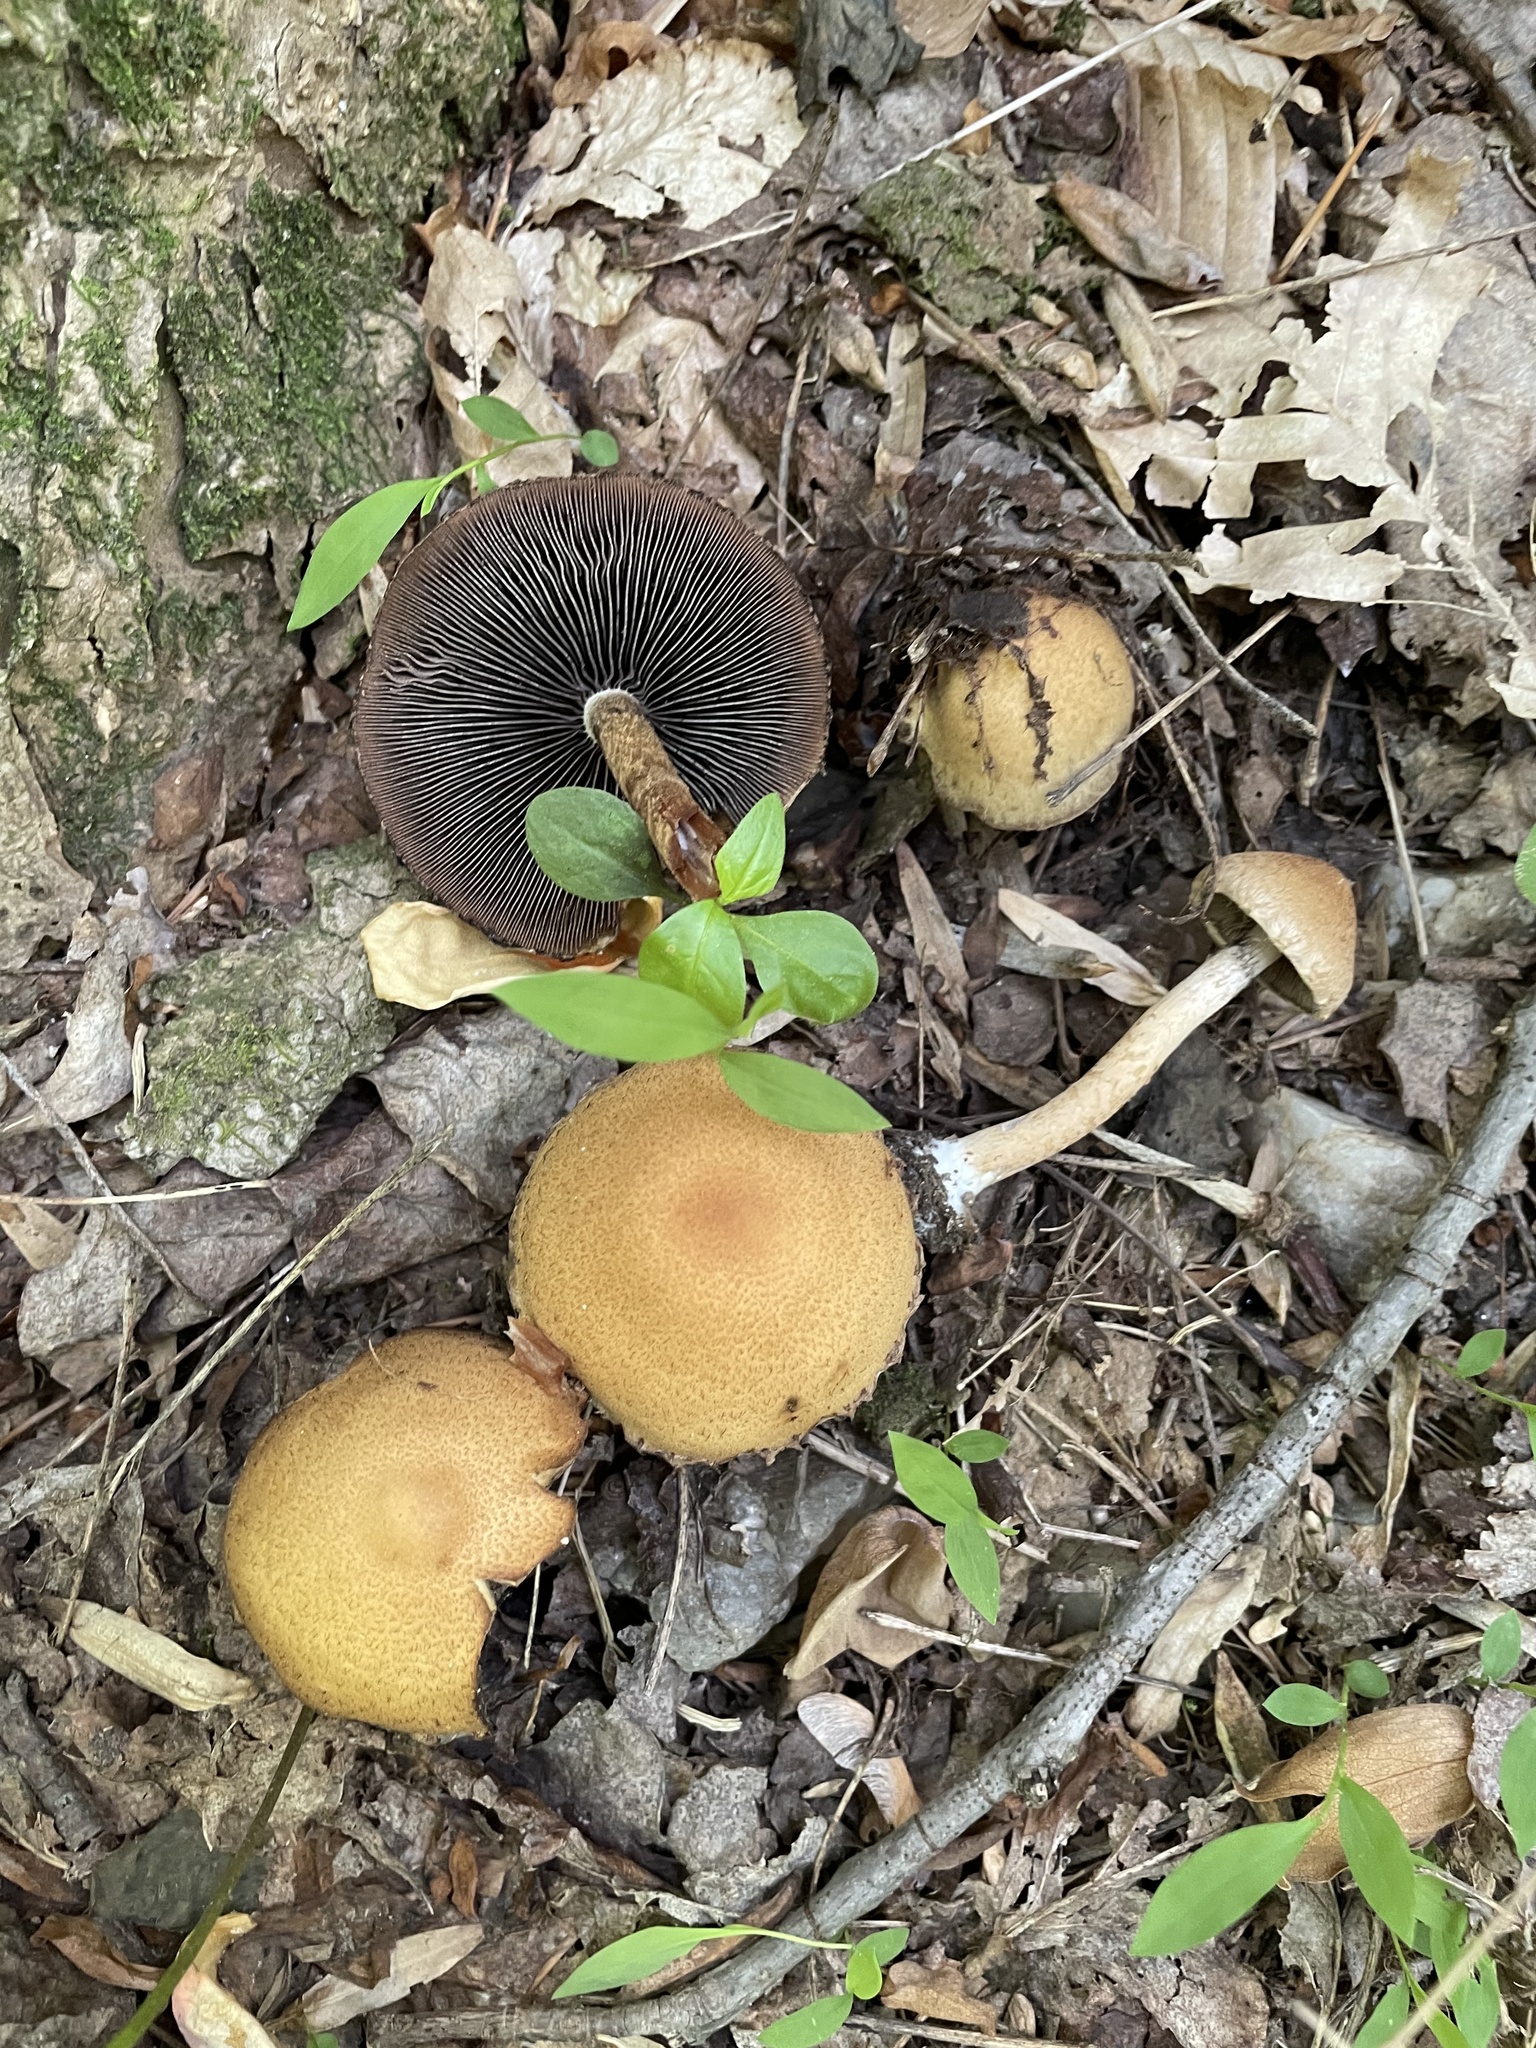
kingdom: Fungi
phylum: Basidiomycota
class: Agaricomycetes
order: Agaricales
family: Psathyrellaceae
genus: Lacrymaria
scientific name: Lacrymaria lacrymabunda
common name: Weeping widow
